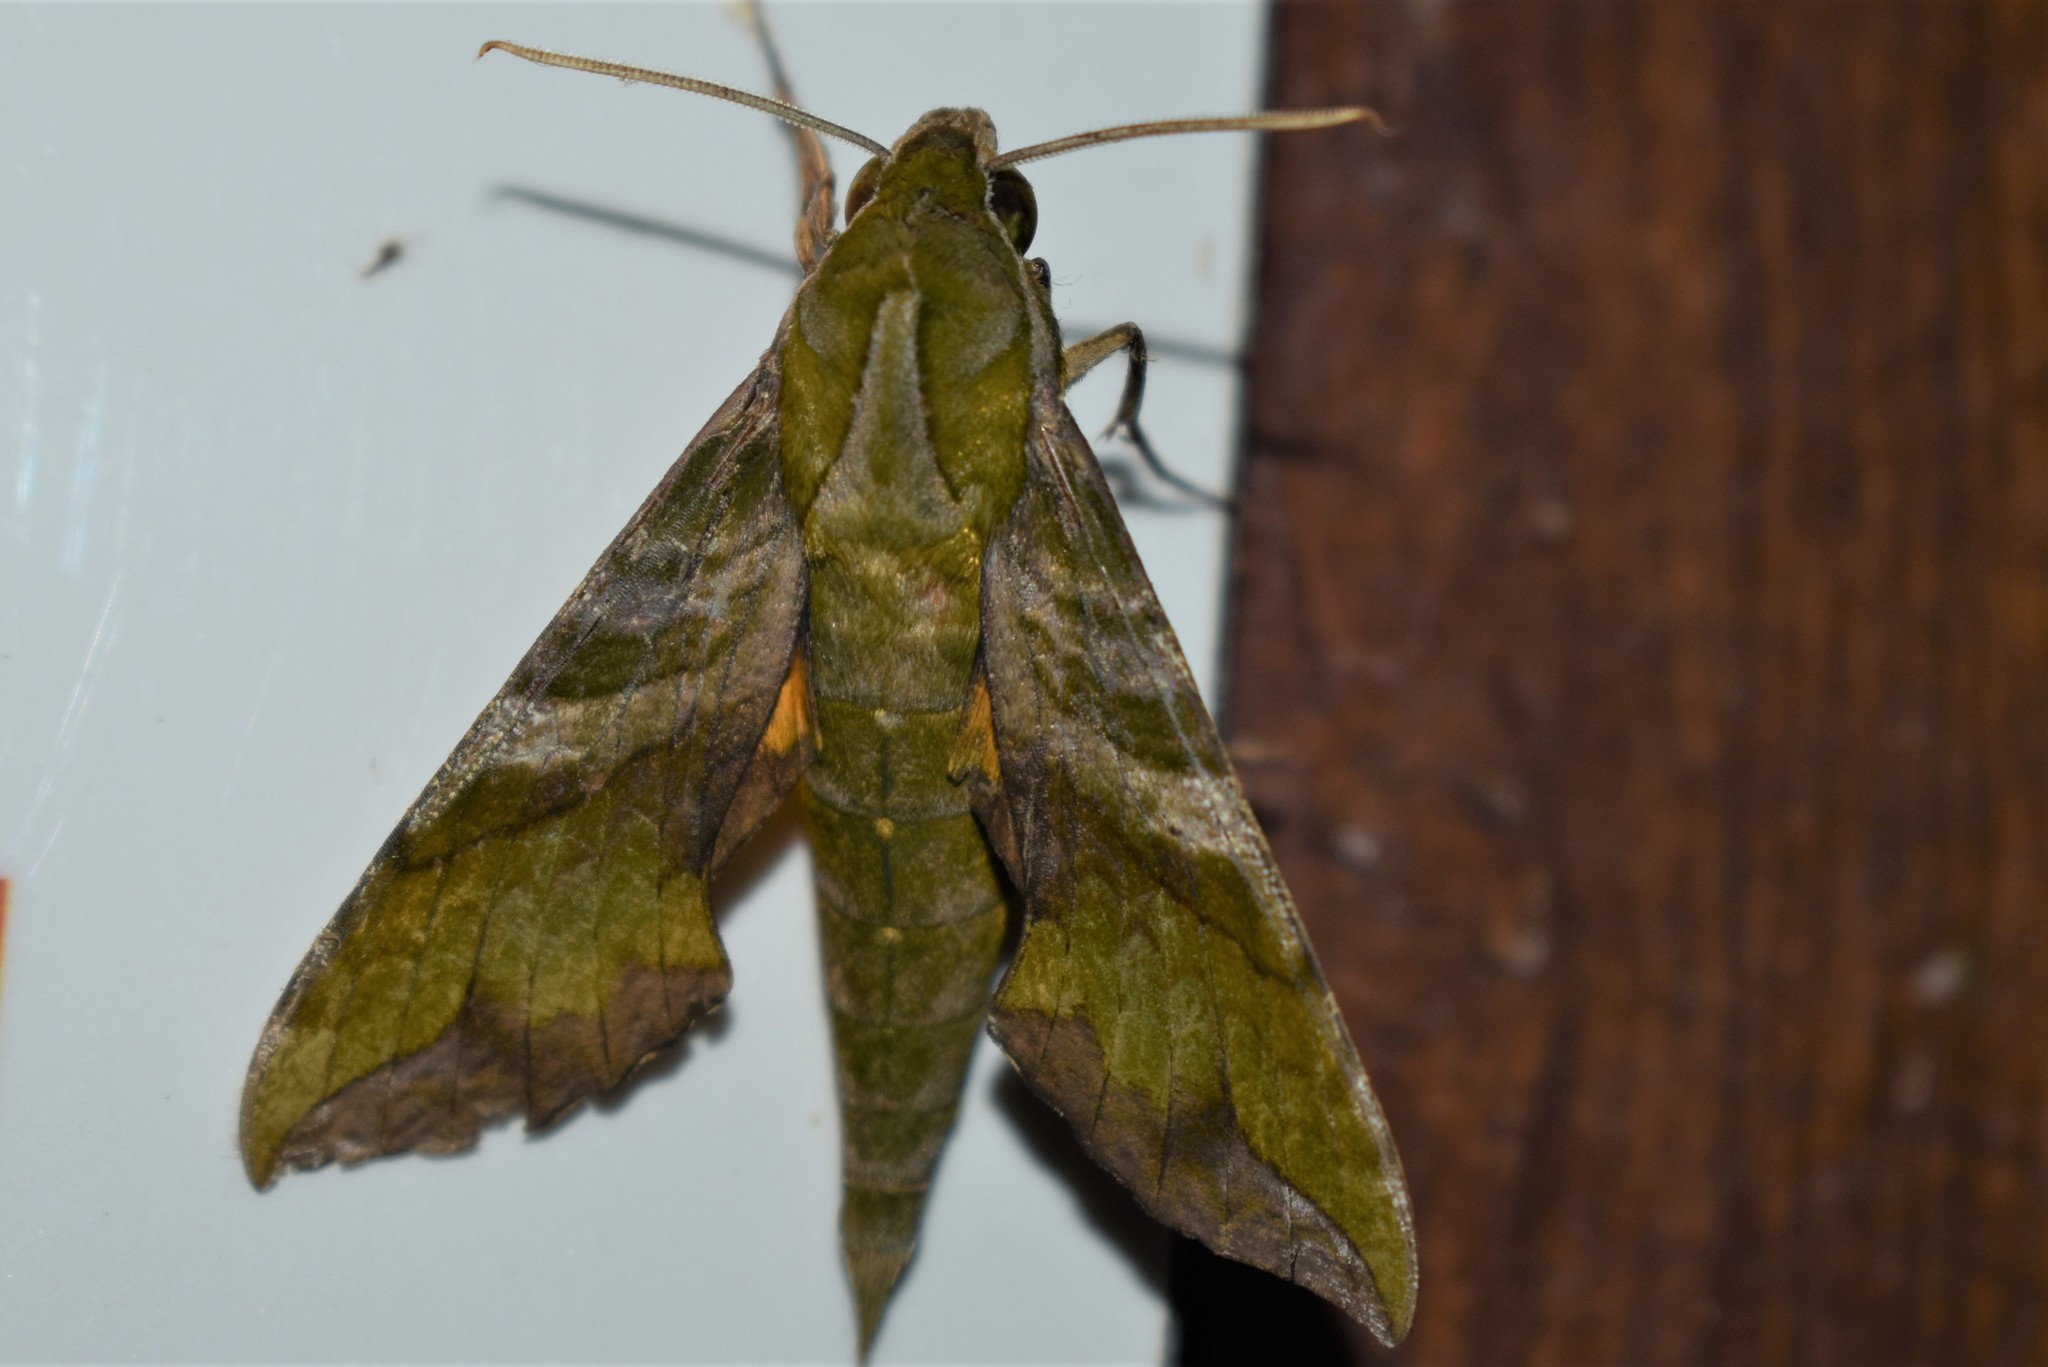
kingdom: Animalia
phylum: Arthropoda
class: Insecta
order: Lepidoptera
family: Sphingidae
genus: Xylophanes
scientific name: Xylophanes pluto
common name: Pluto sphinx
